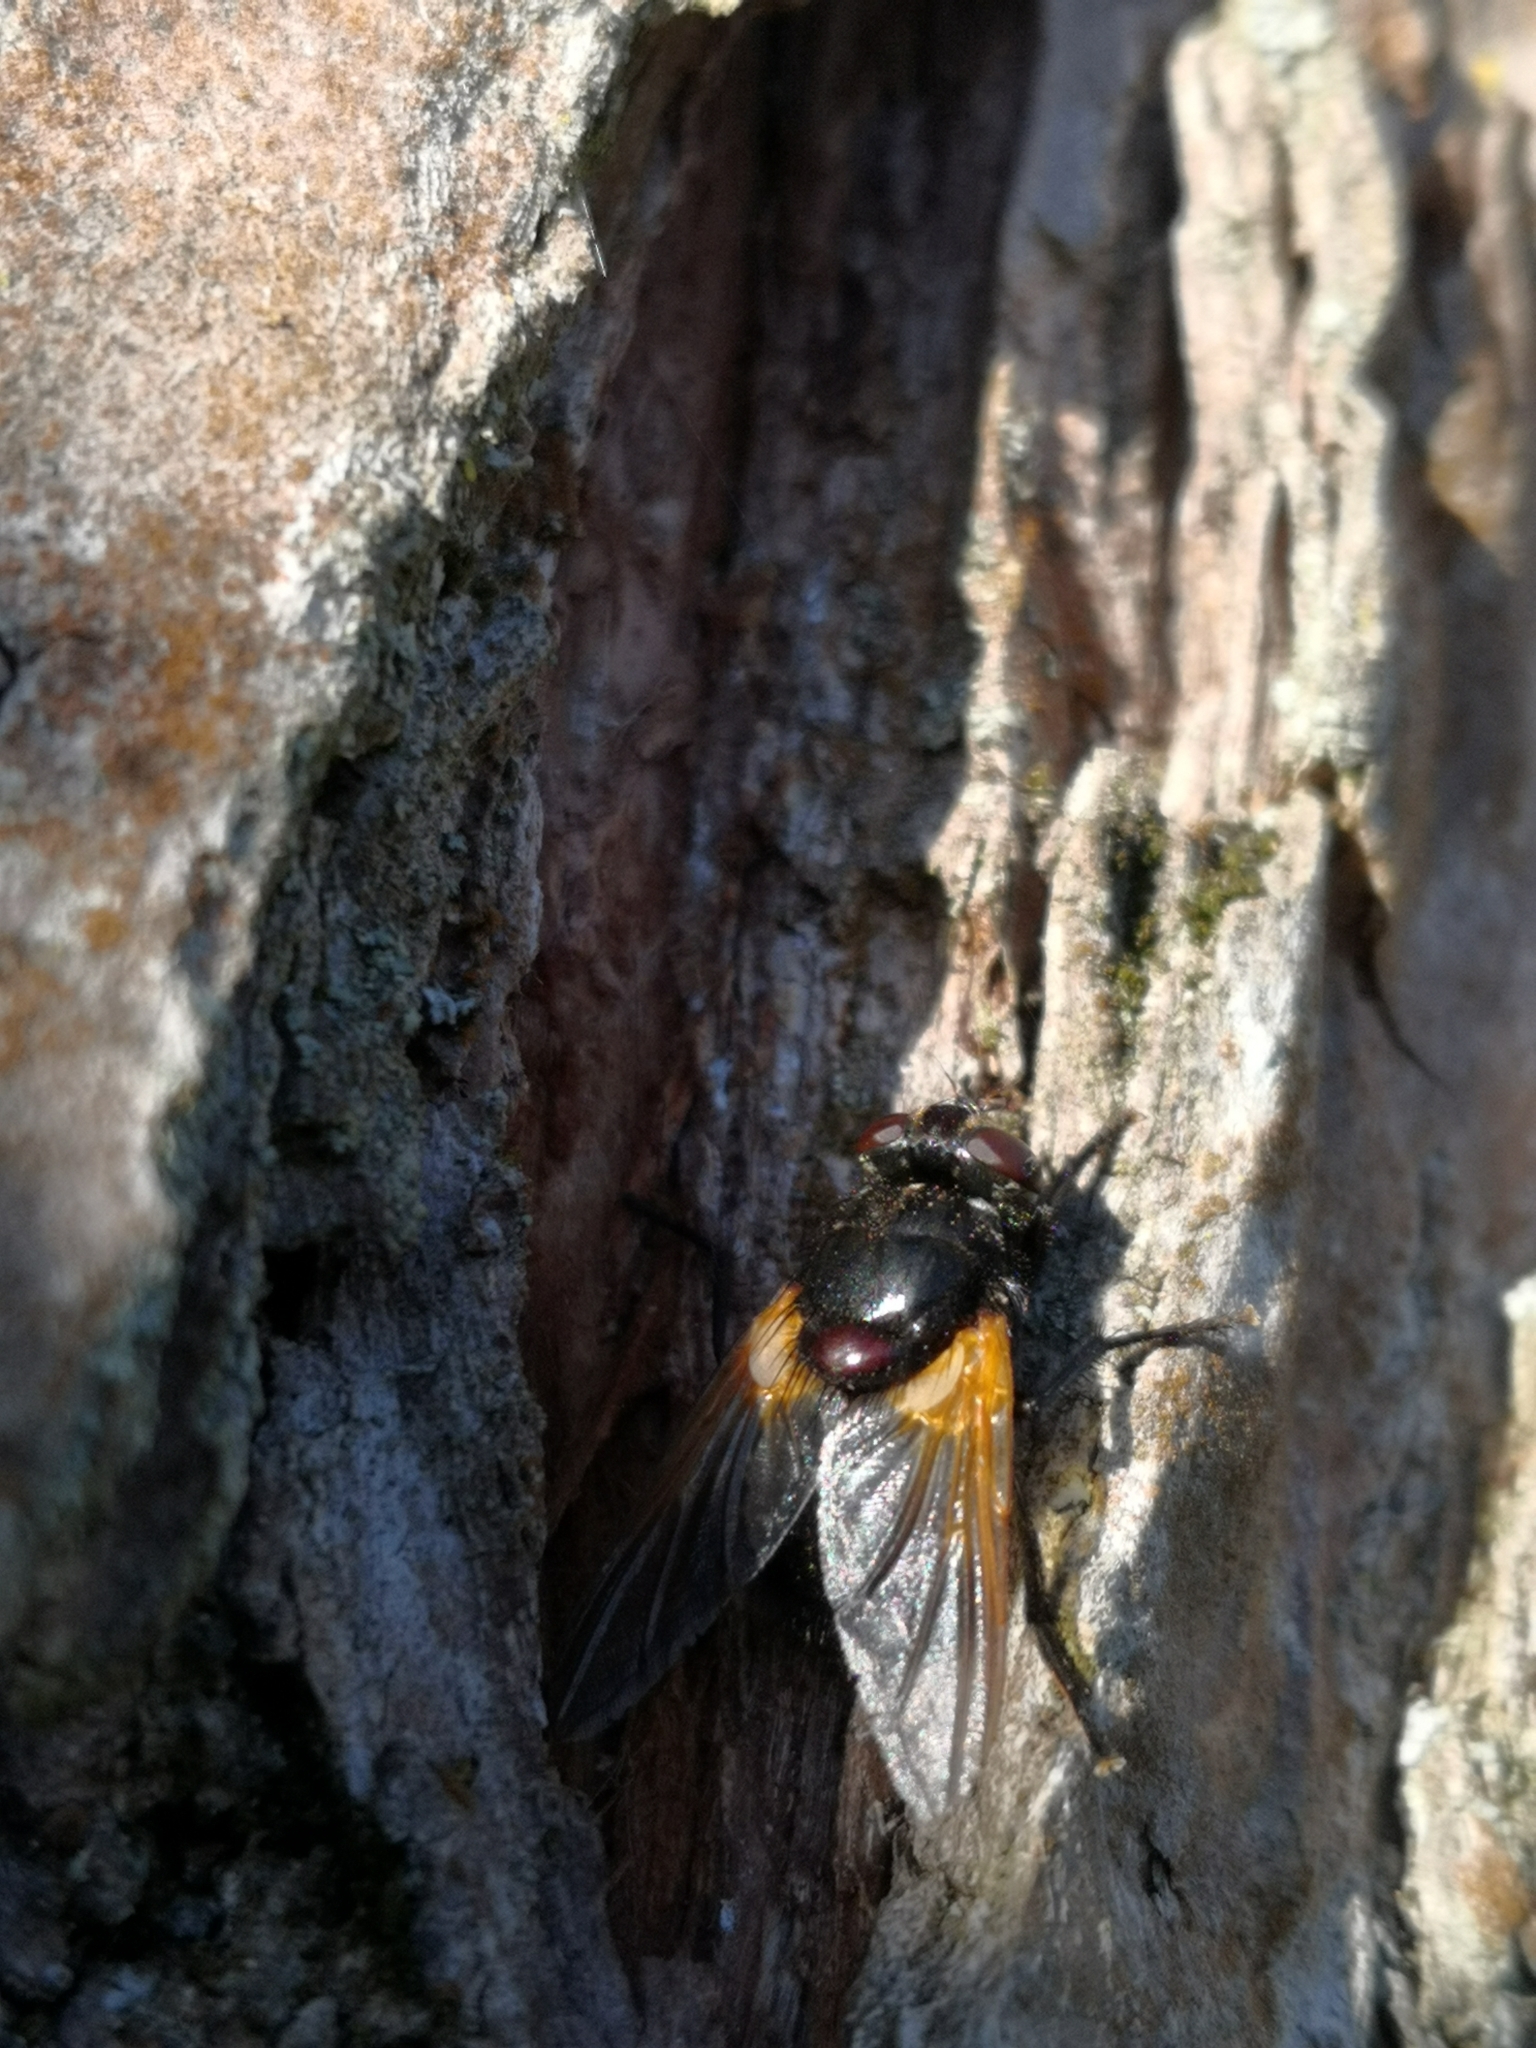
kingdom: Animalia
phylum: Arthropoda
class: Insecta
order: Diptera
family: Muscidae
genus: Mesembrina
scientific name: Mesembrina meridiana
